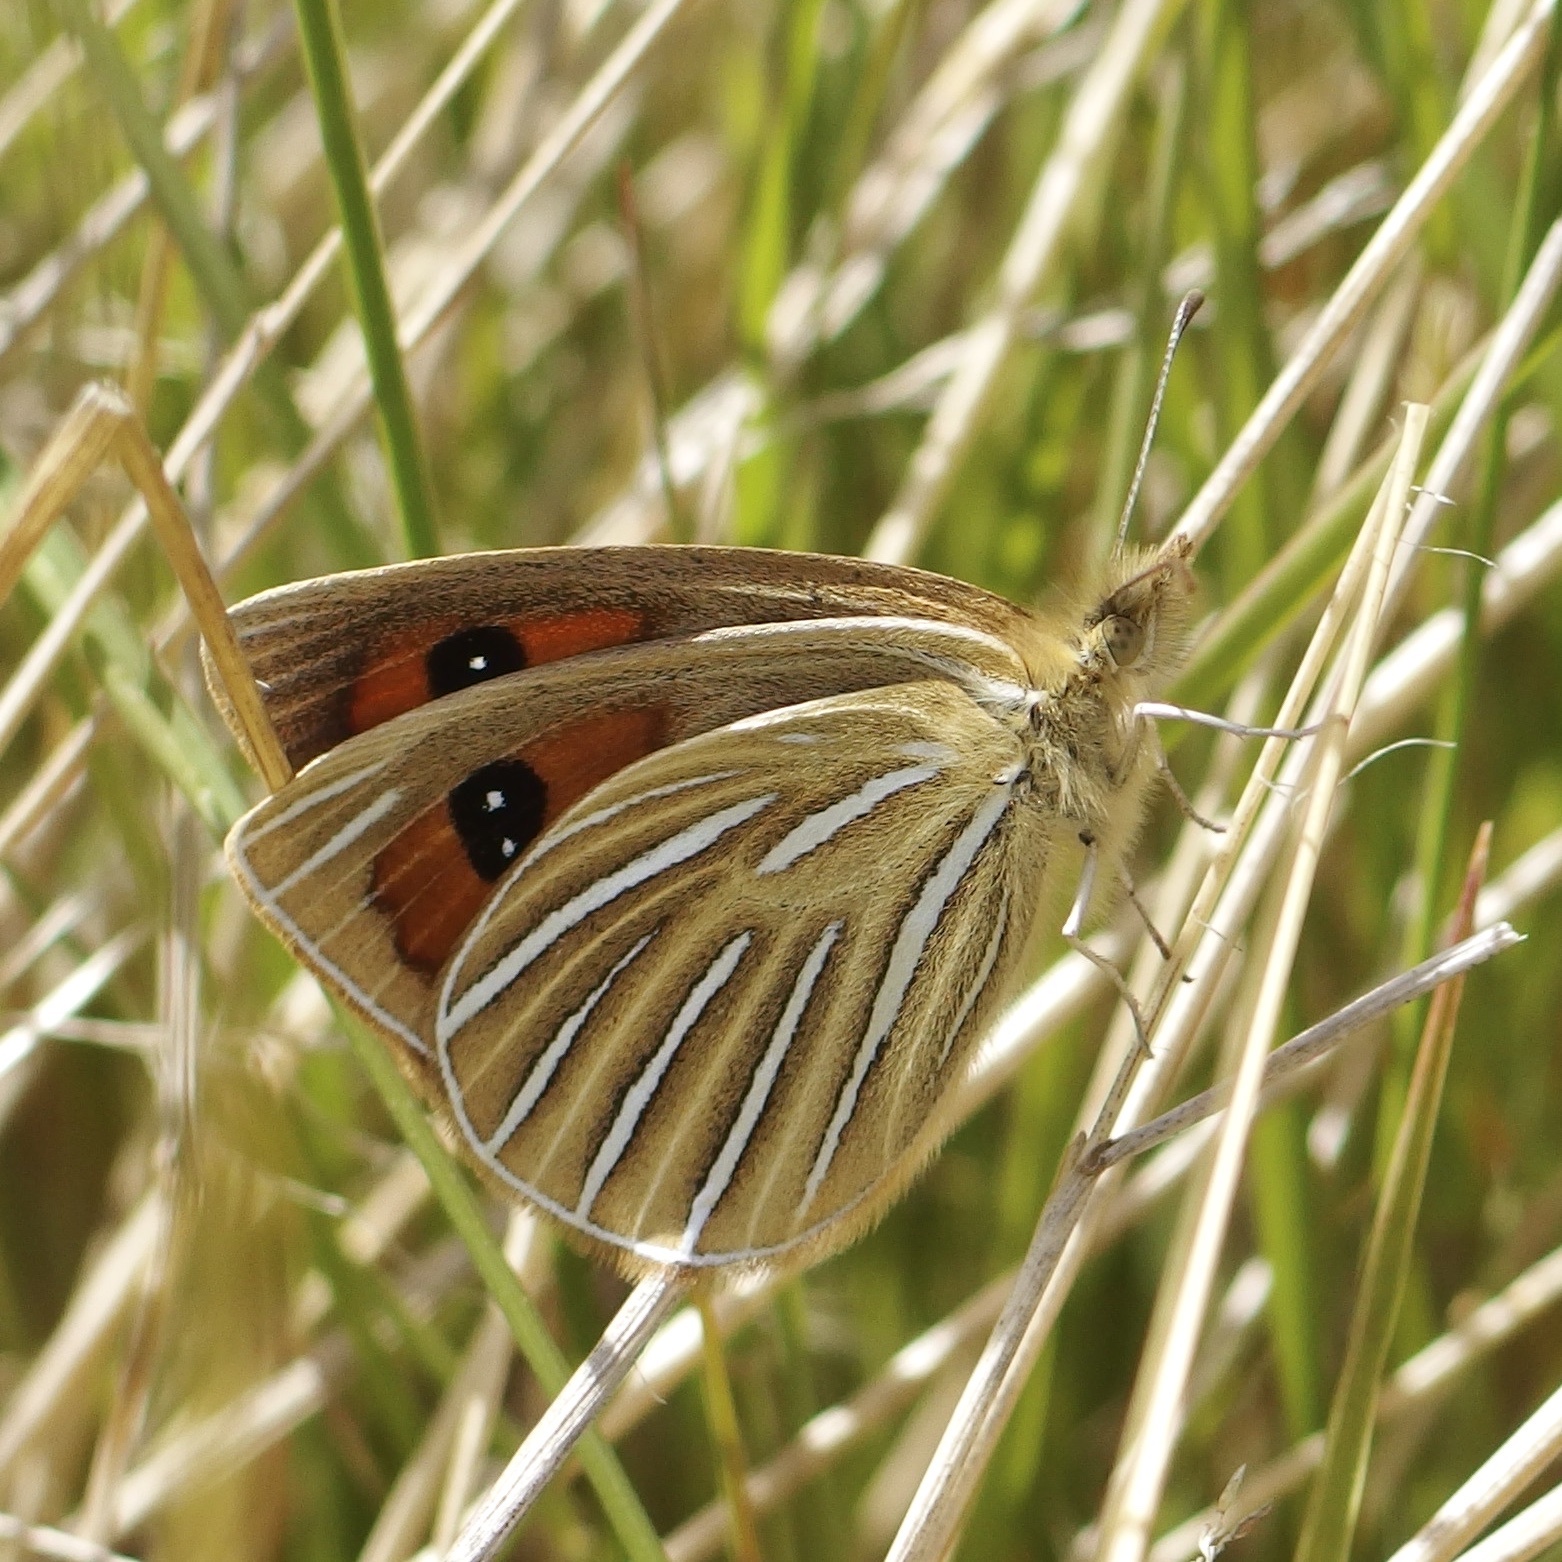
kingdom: Animalia
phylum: Arthropoda
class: Insecta
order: Lepidoptera
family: Nymphalidae
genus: Argyrophenga
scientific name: Argyrophenga antipodum
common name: Common tussock butterfly
